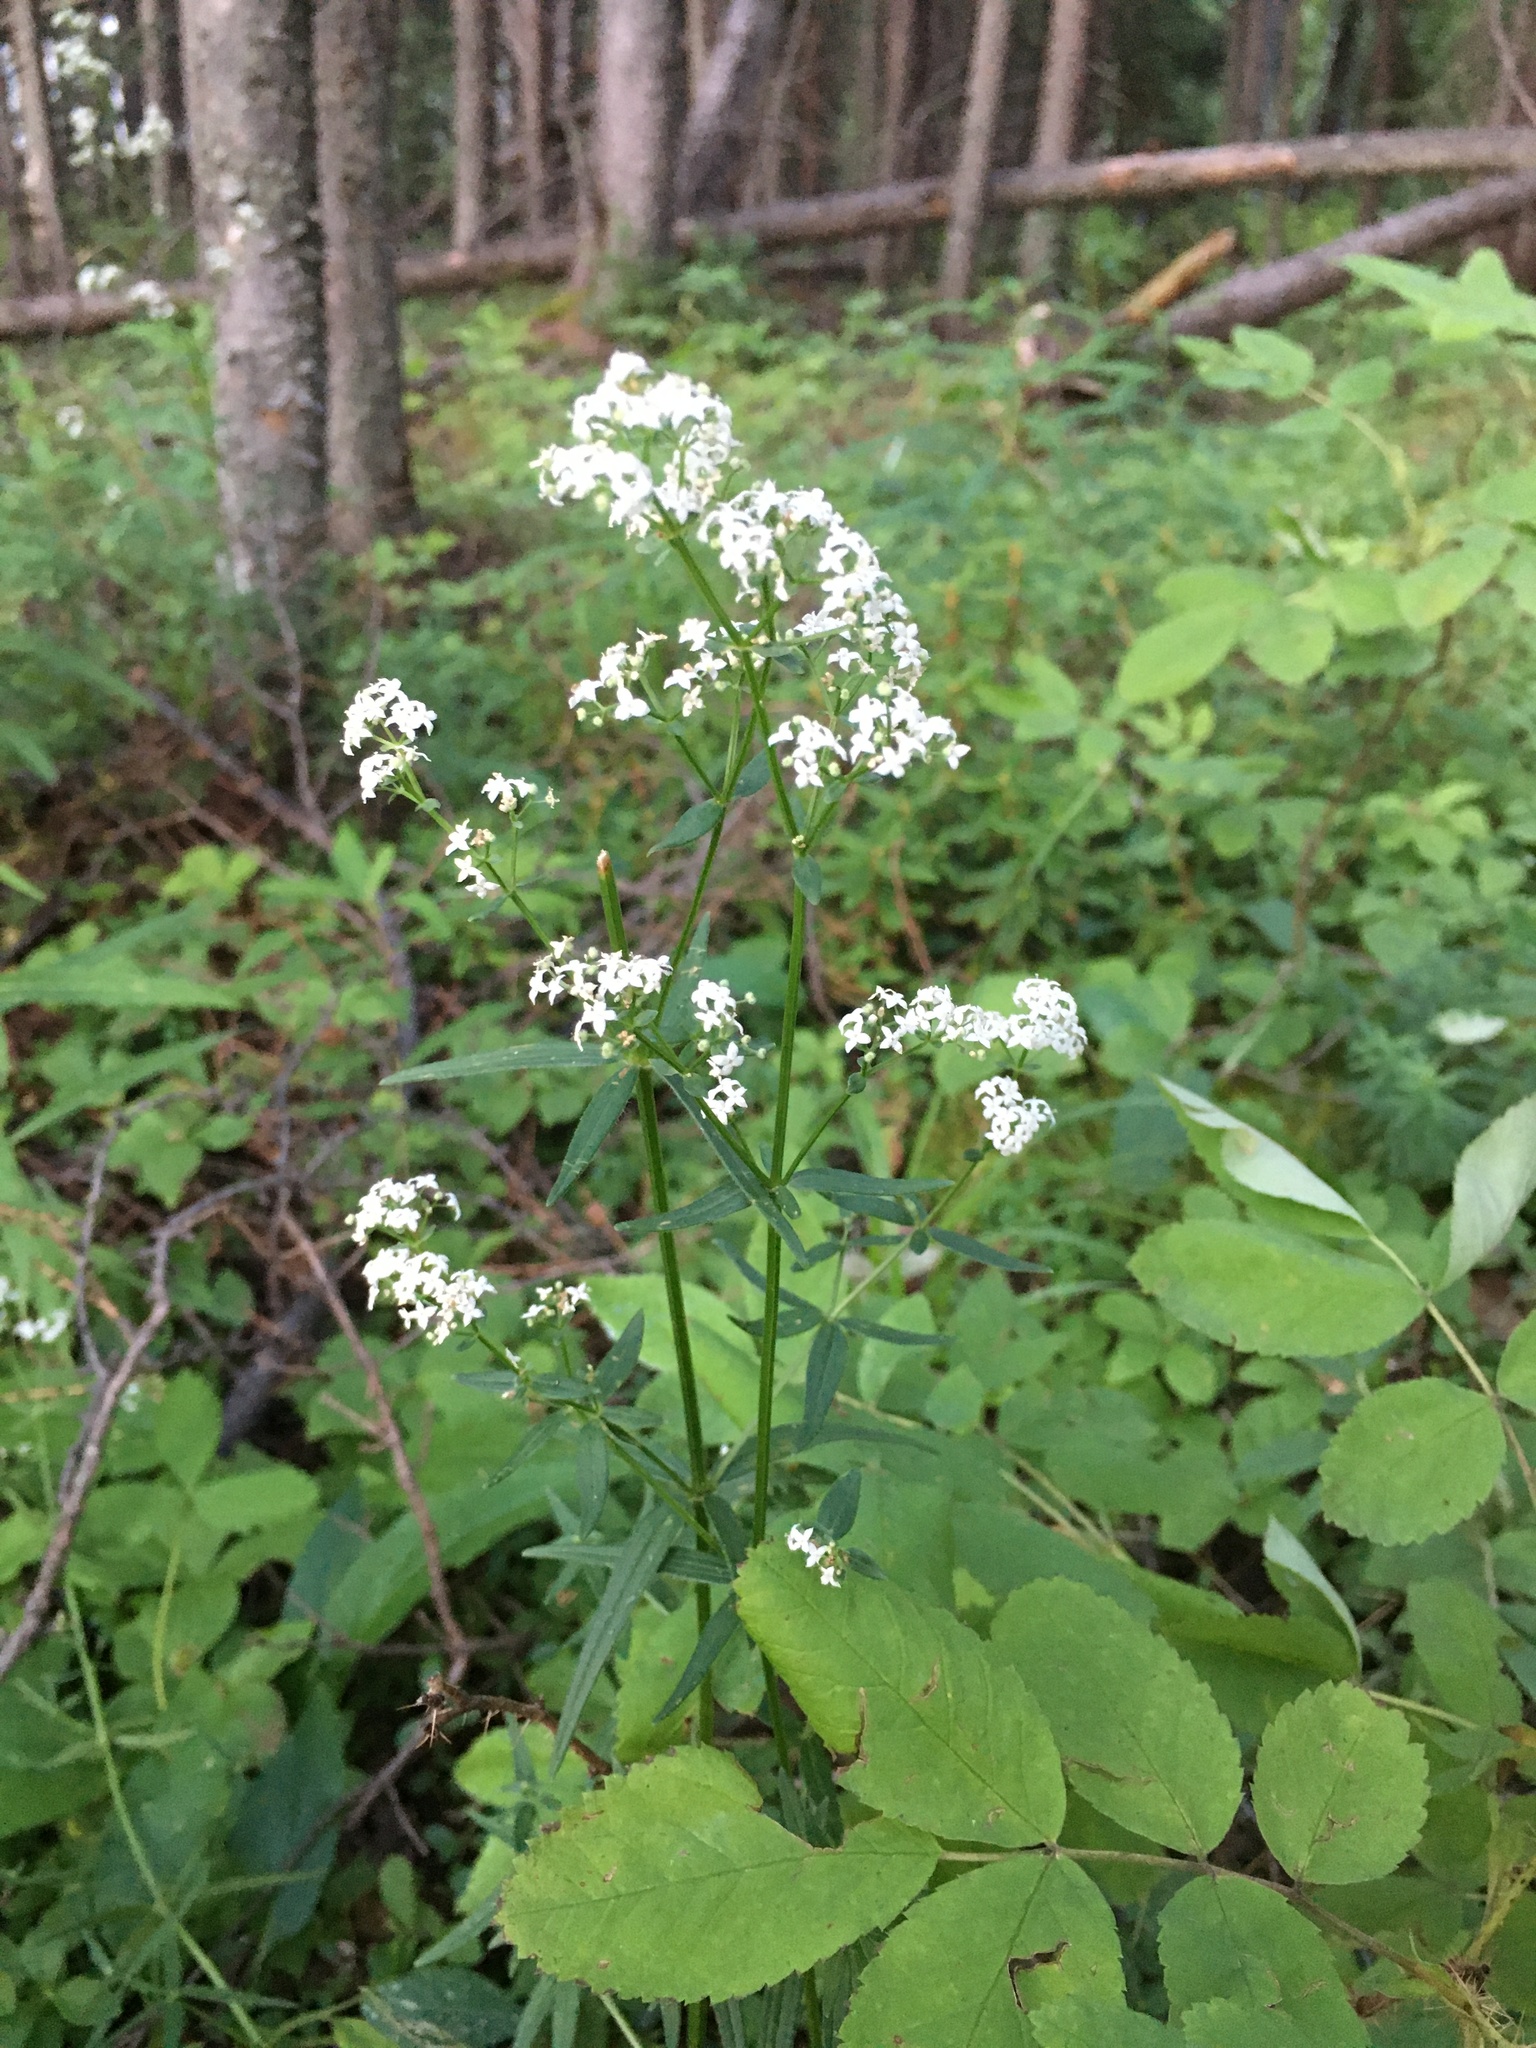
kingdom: Plantae
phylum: Tracheophyta
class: Magnoliopsida
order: Gentianales
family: Rubiaceae
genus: Galium
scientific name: Galium boreale
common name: Northern bedstraw
